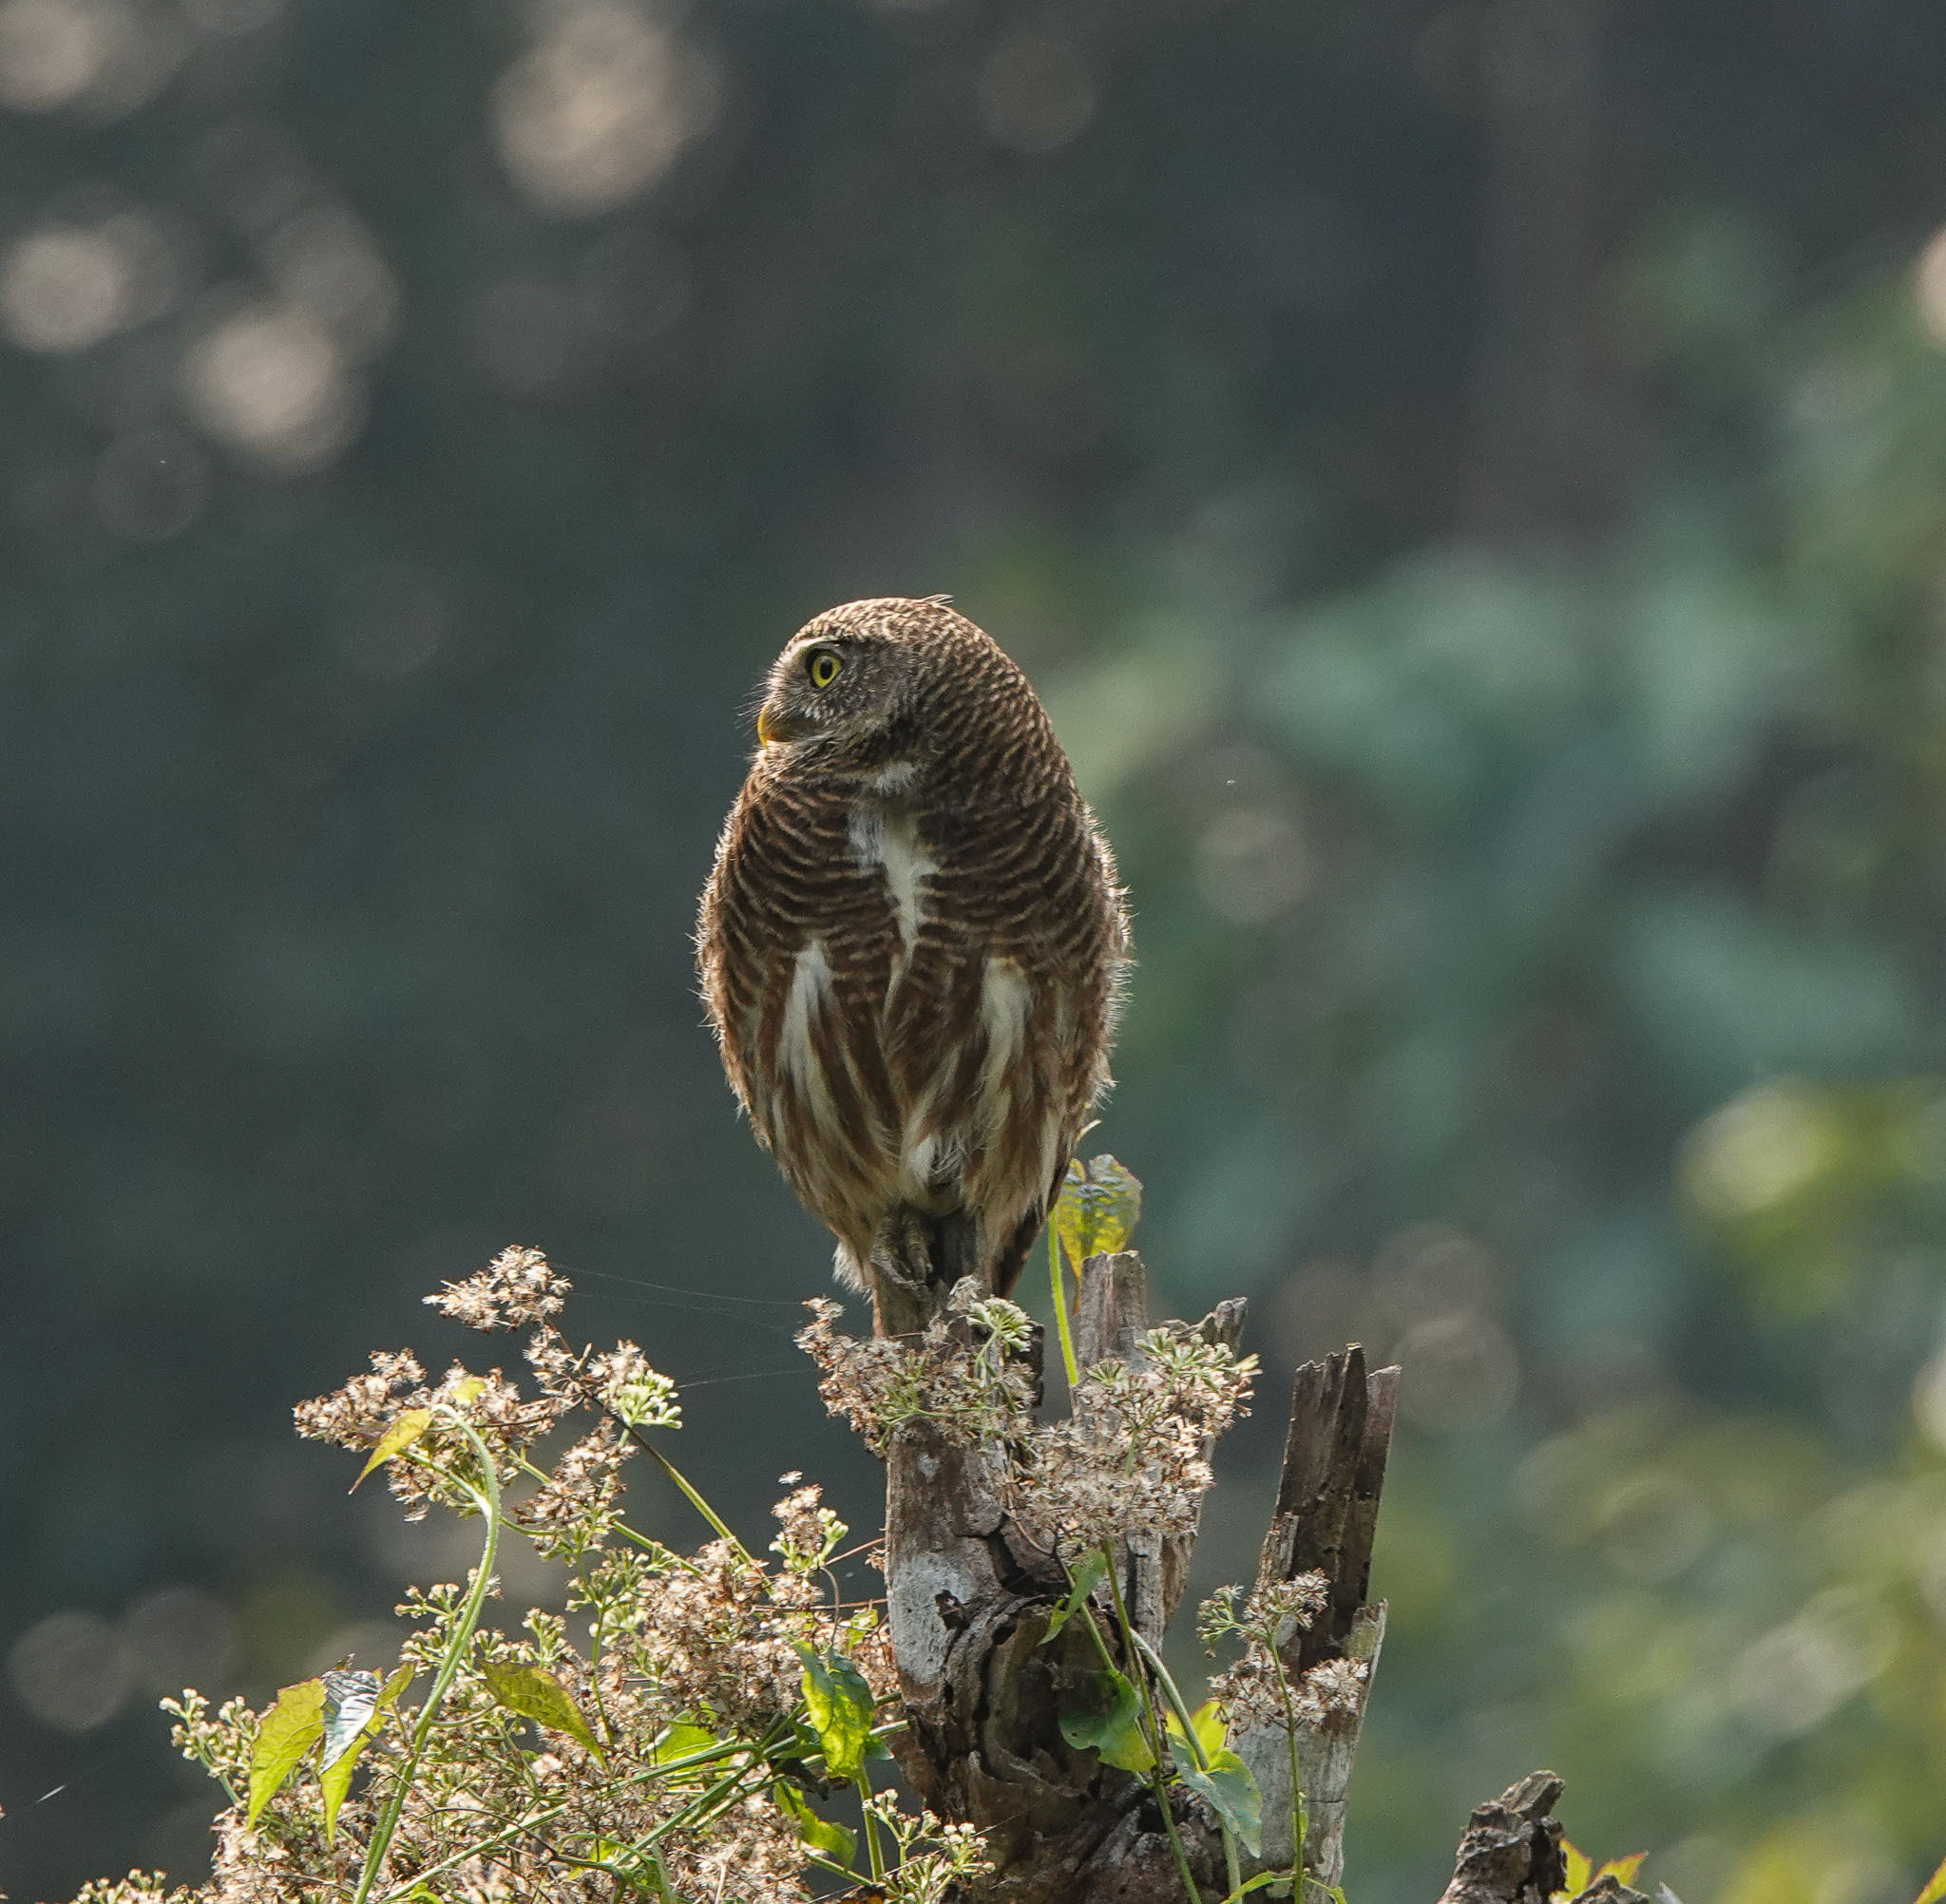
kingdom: Animalia
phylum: Chordata
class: Aves
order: Strigiformes
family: Strigidae
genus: Glaucidium
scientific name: Glaucidium cuculoides
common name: Asian barred owlet
